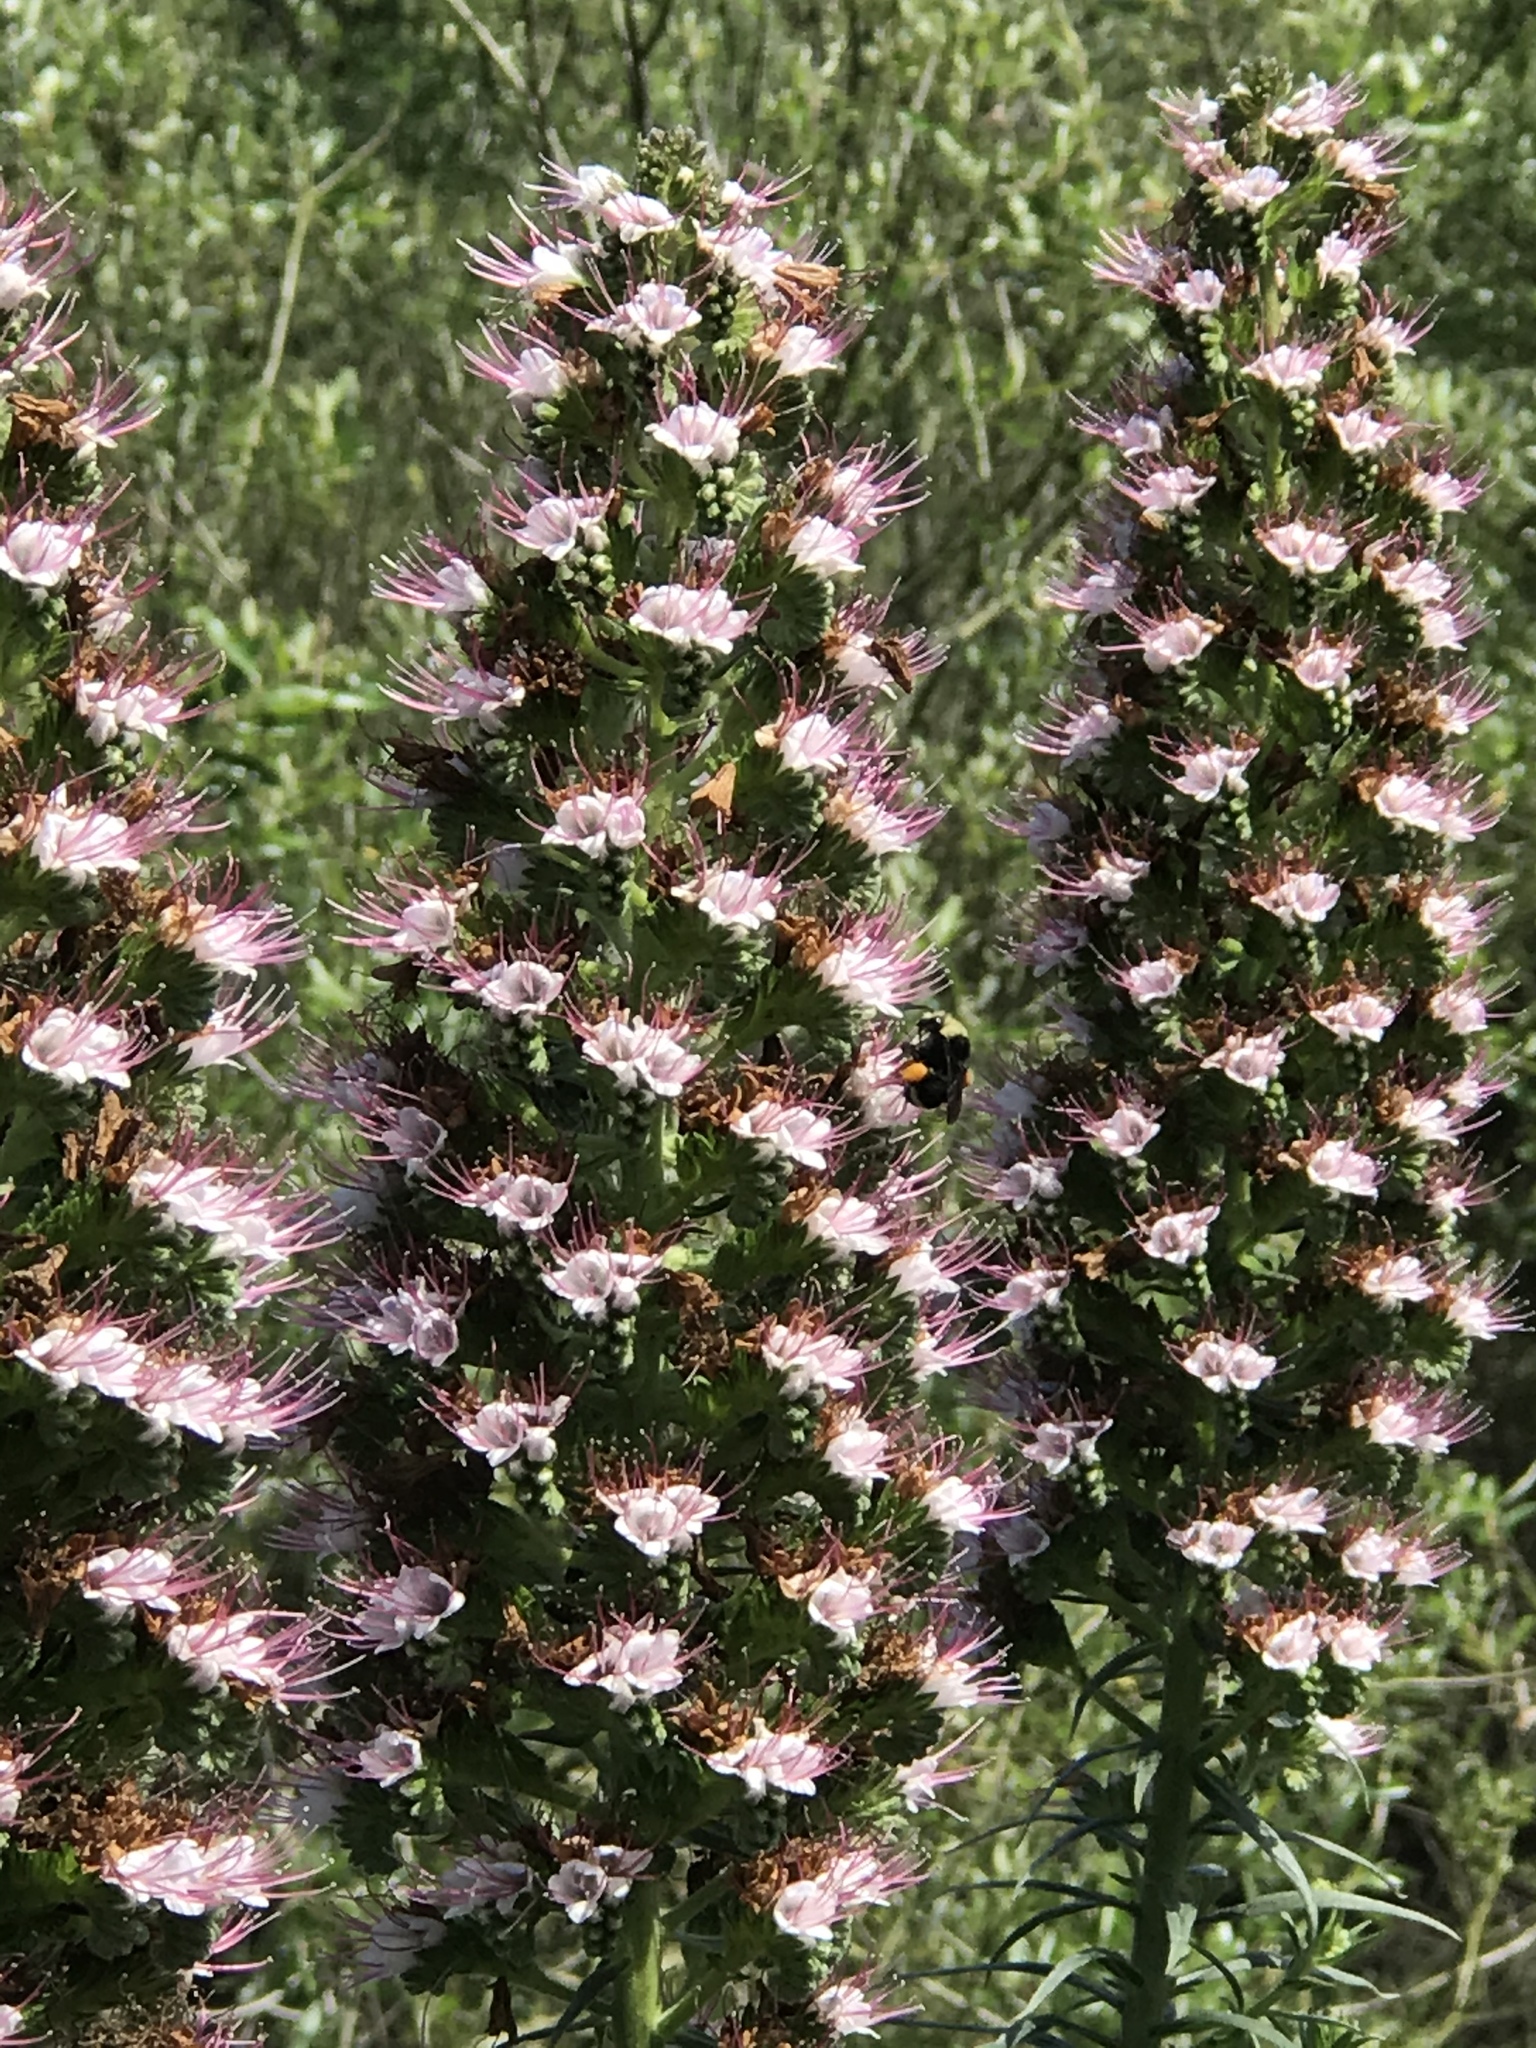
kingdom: Animalia
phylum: Arthropoda
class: Insecta
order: Hymenoptera
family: Apidae
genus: Bombus
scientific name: Bombus vosnesenskii
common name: Vosnesensky bumble bee
